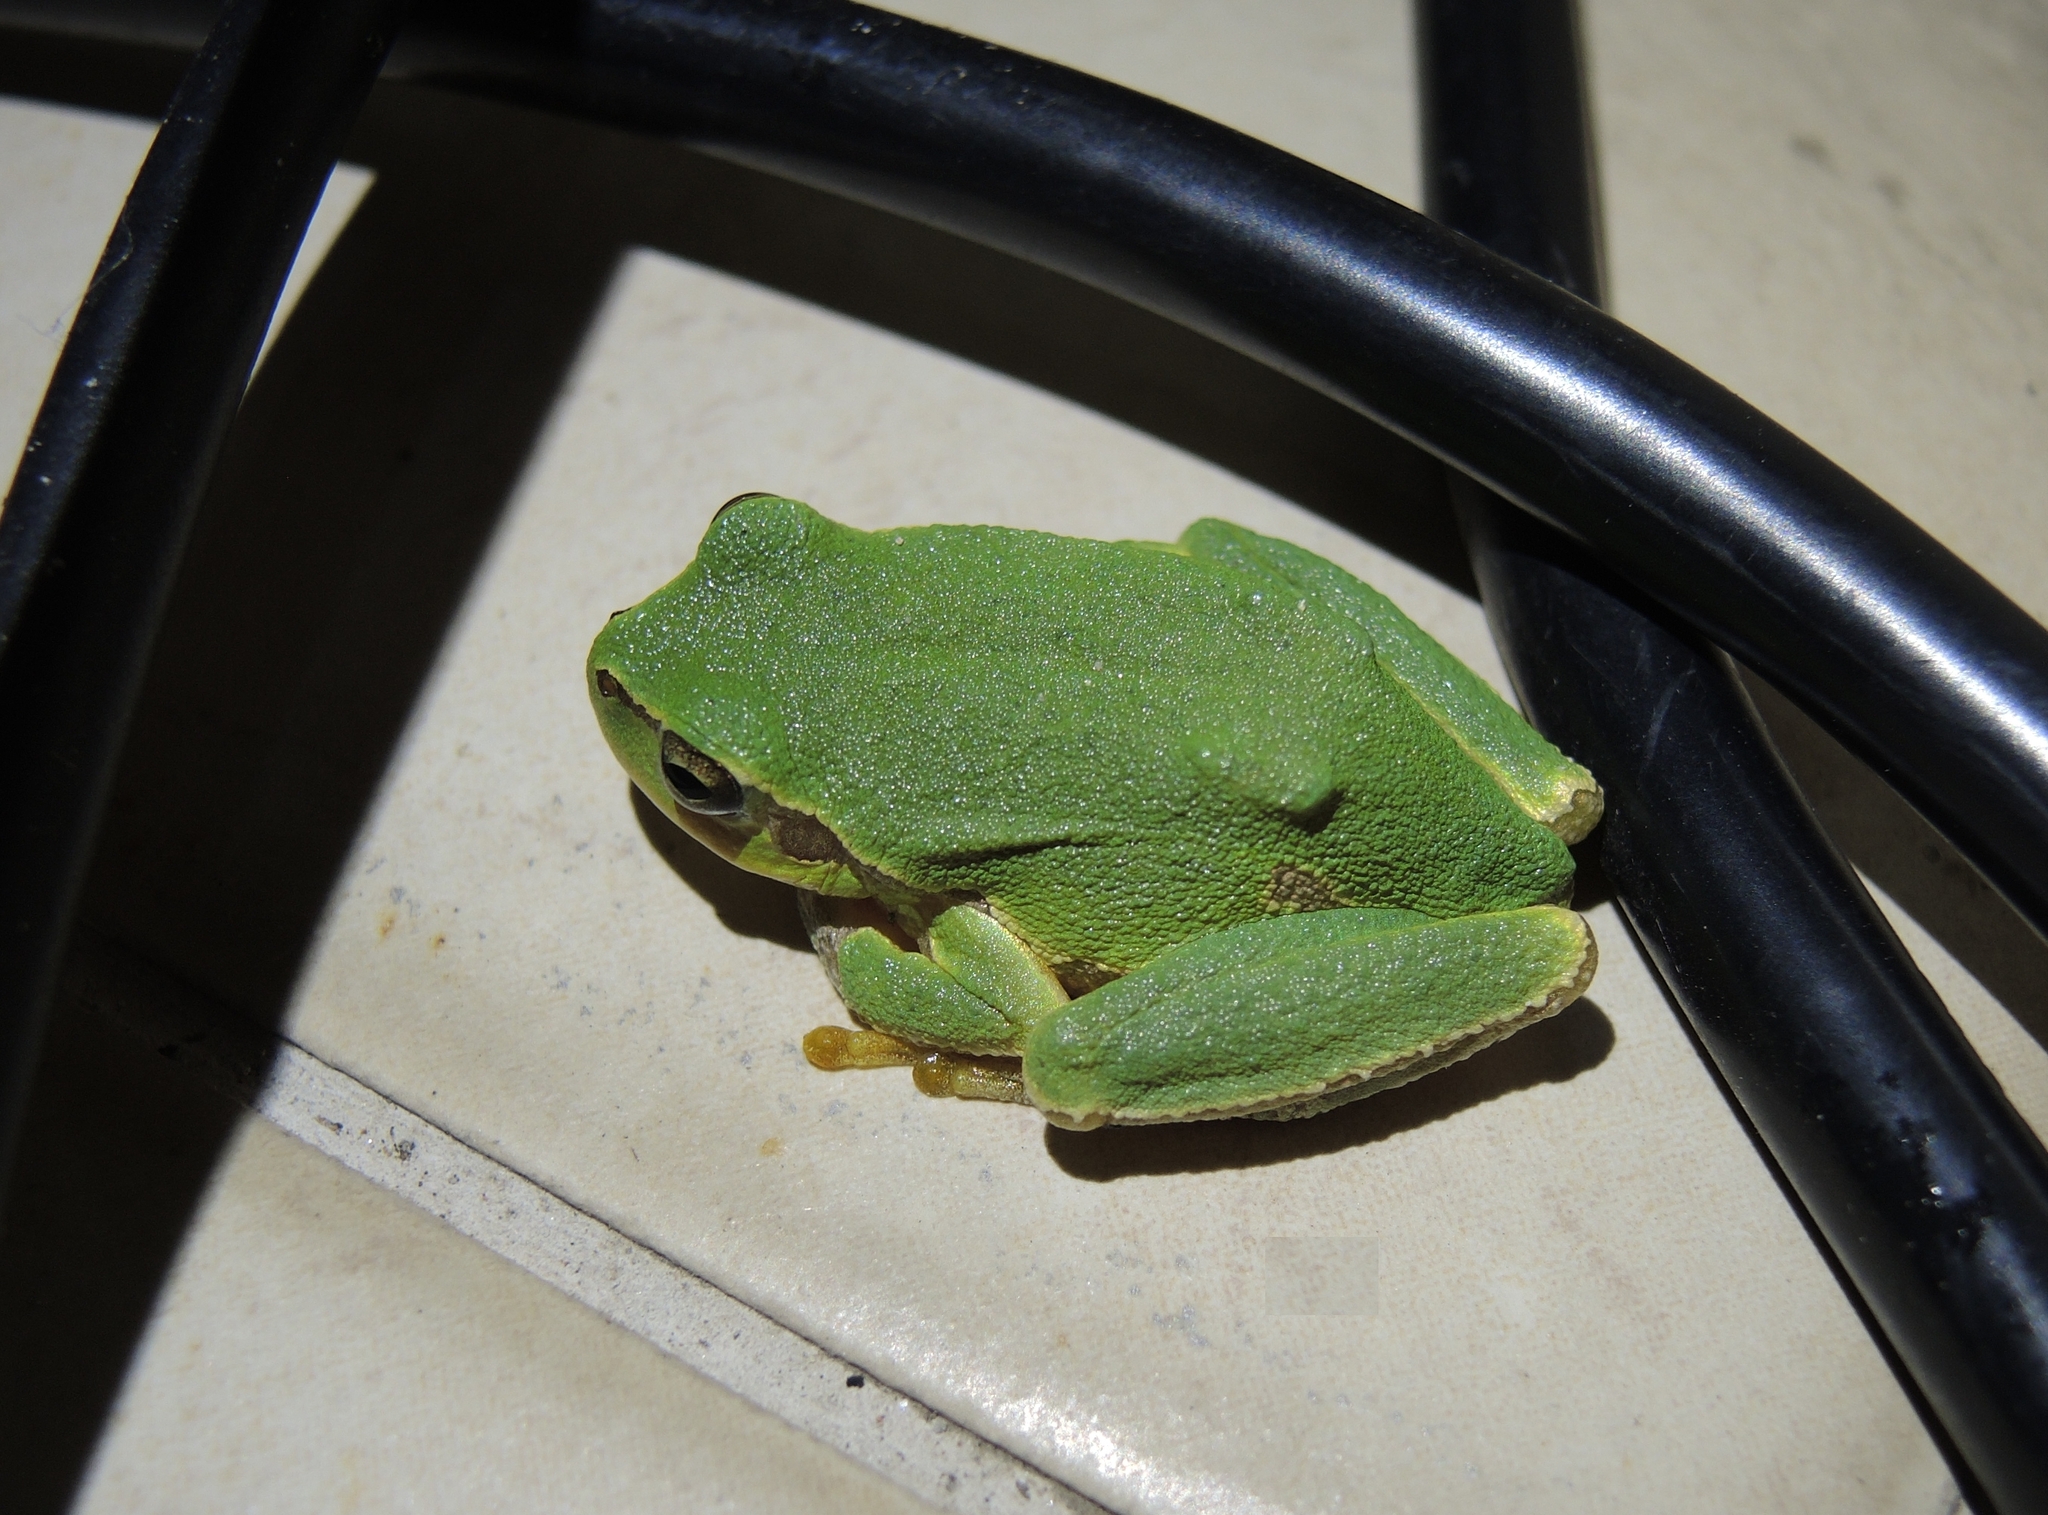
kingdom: Animalia
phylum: Chordata
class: Amphibia
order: Anura
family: Hylidae
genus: Hyla
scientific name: Hyla orientalis
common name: Caucasian treefrog
